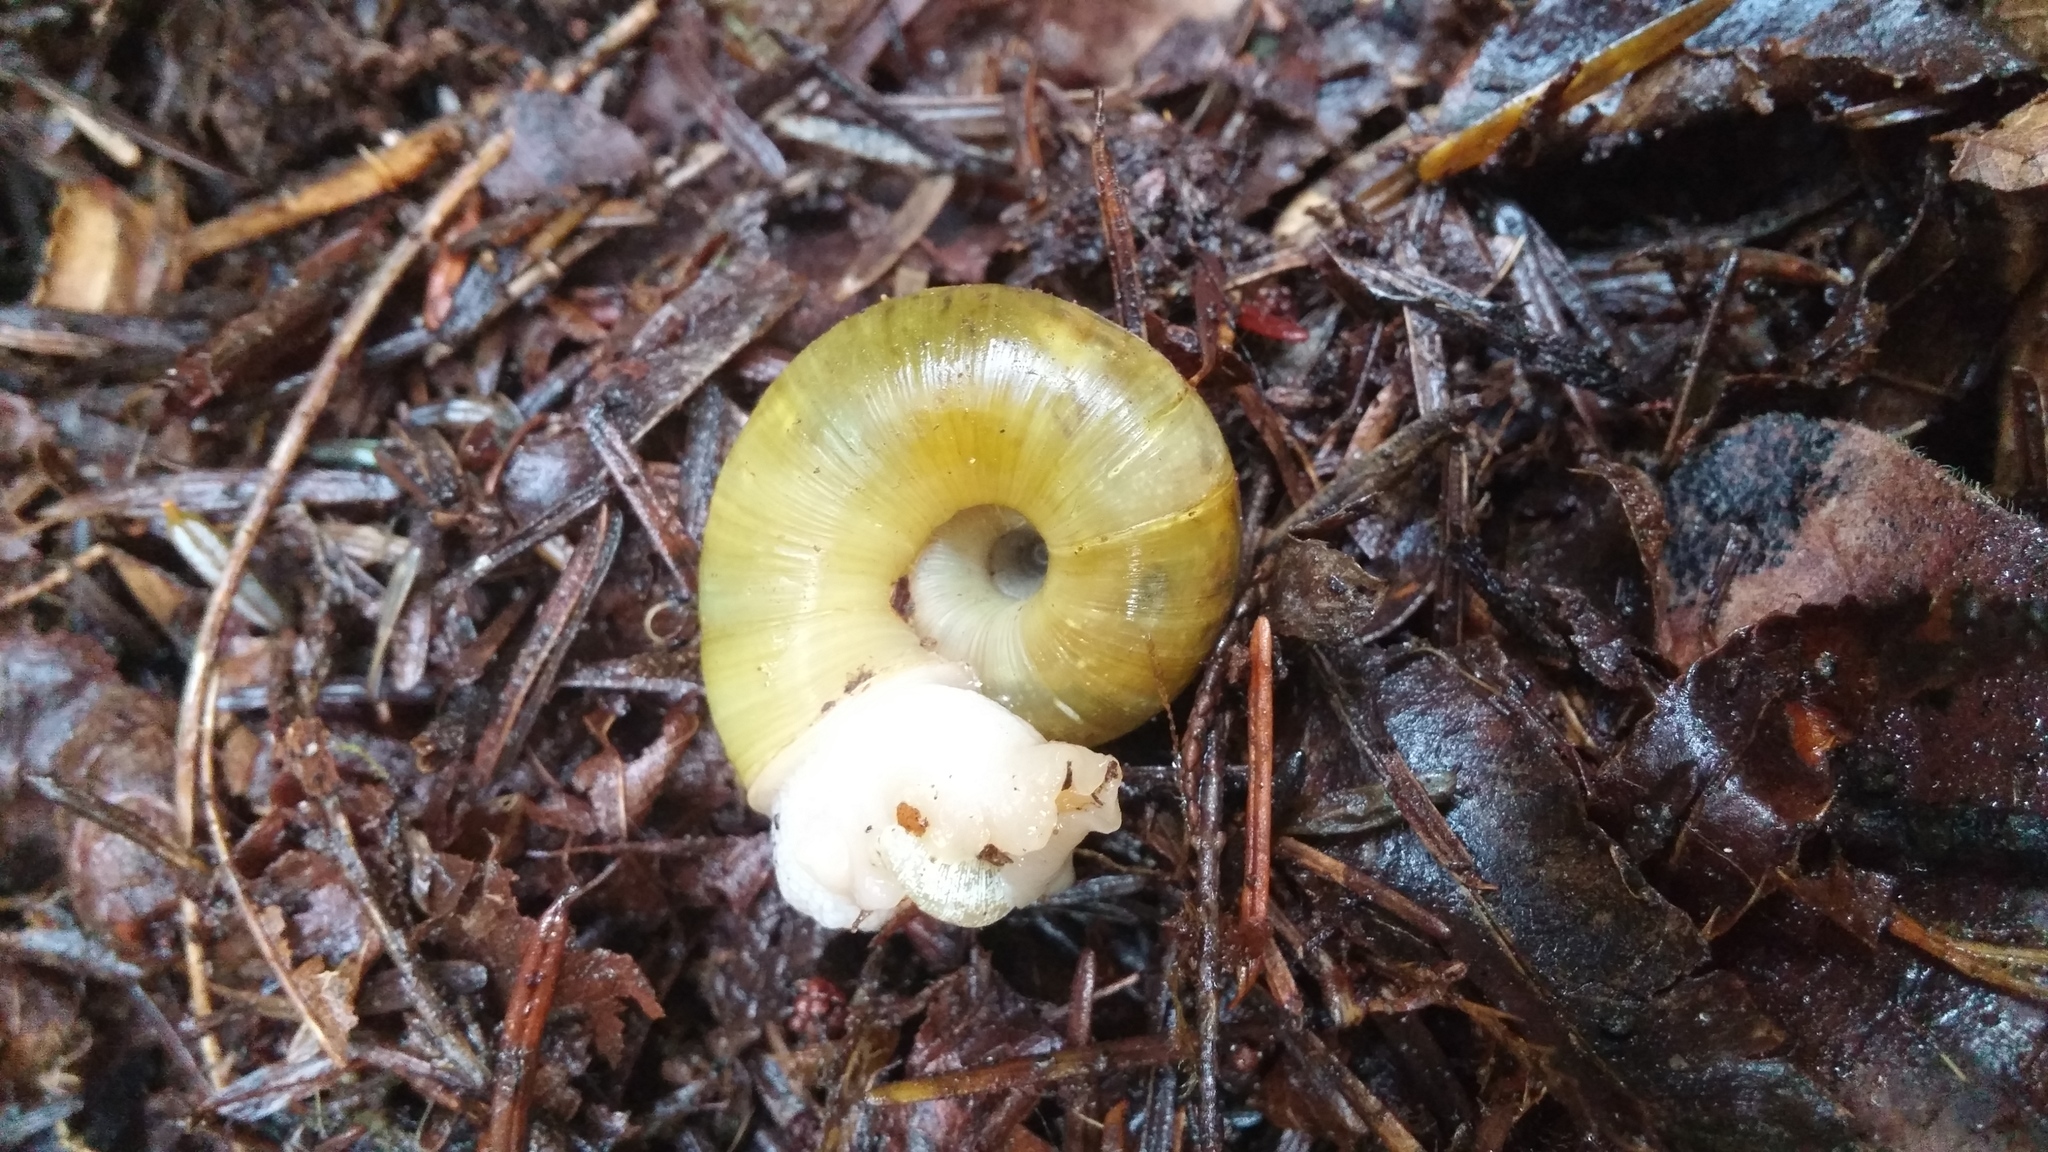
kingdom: Animalia
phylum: Mollusca
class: Gastropoda
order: Stylommatophora
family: Haplotrematidae
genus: Haplotrema
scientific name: Haplotrema vancouverense
